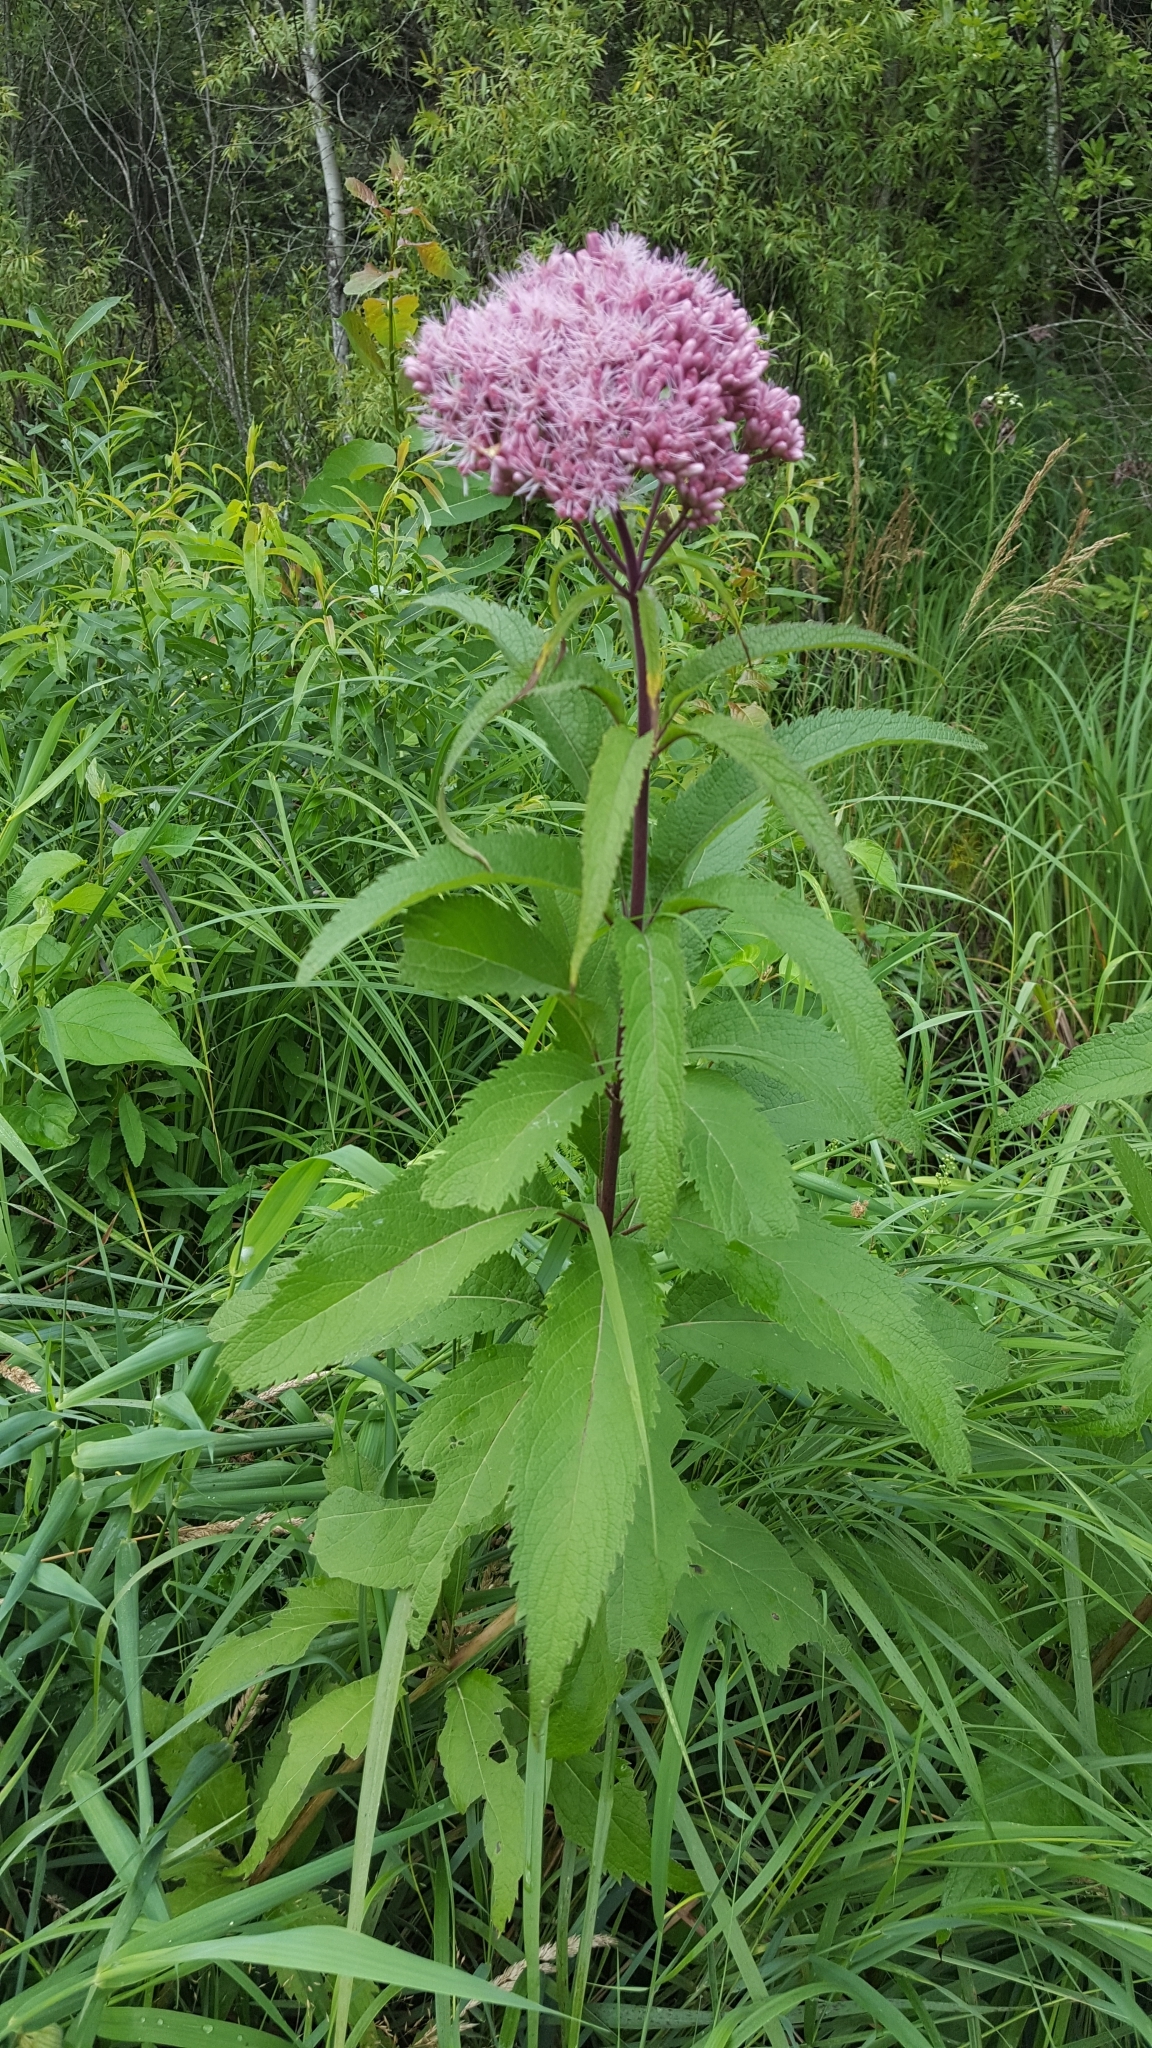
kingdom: Plantae
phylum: Tracheophyta
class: Magnoliopsida
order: Asterales
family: Asteraceae
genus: Eutrochium
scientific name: Eutrochium maculatum
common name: Spotted joe pye weed
